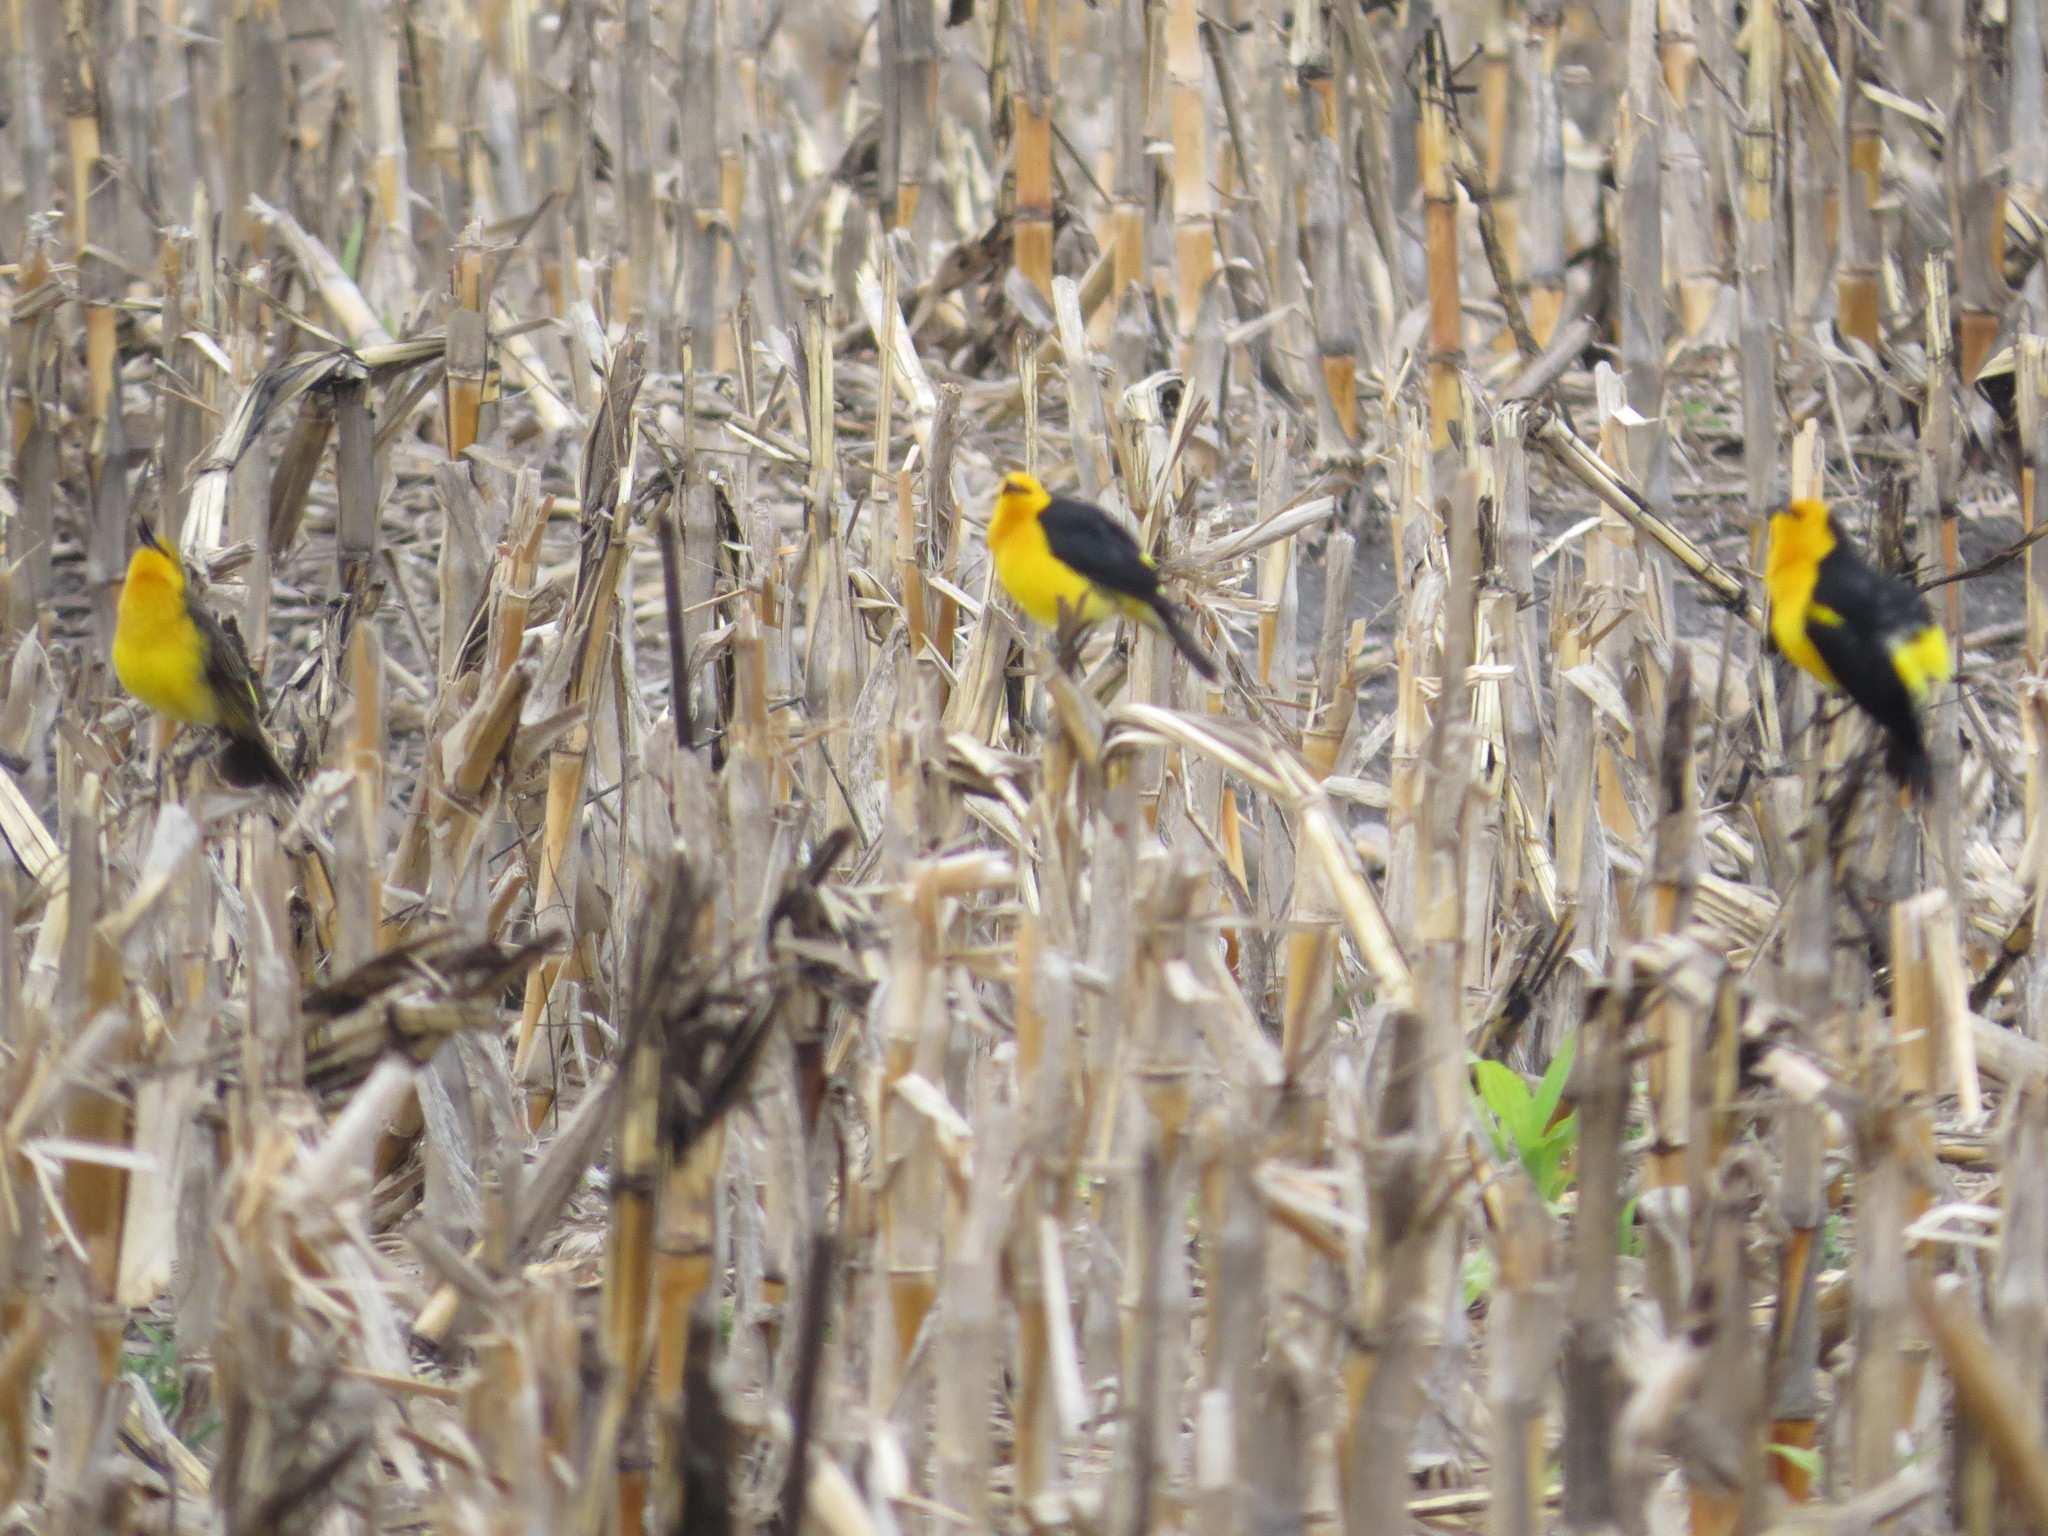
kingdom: Animalia
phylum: Chordata
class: Aves
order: Passeriformes
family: Icteridae
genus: Xanthopsar
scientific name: Xanthopsar flavus
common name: Saffron-cowled blackbird
